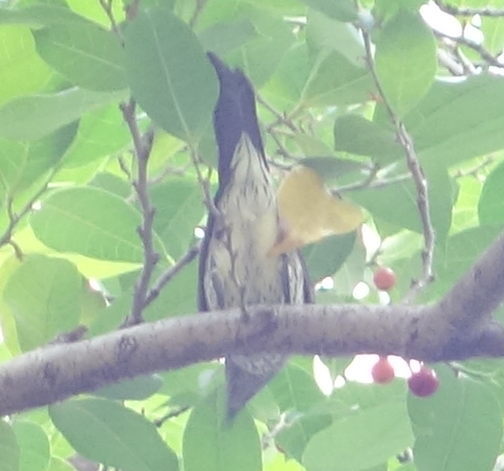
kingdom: Animalia
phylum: Chordata
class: Aves
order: Passeriformes
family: Sturnidae
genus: Aplonis
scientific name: Aplonis panayensis
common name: Asian glossy starling
